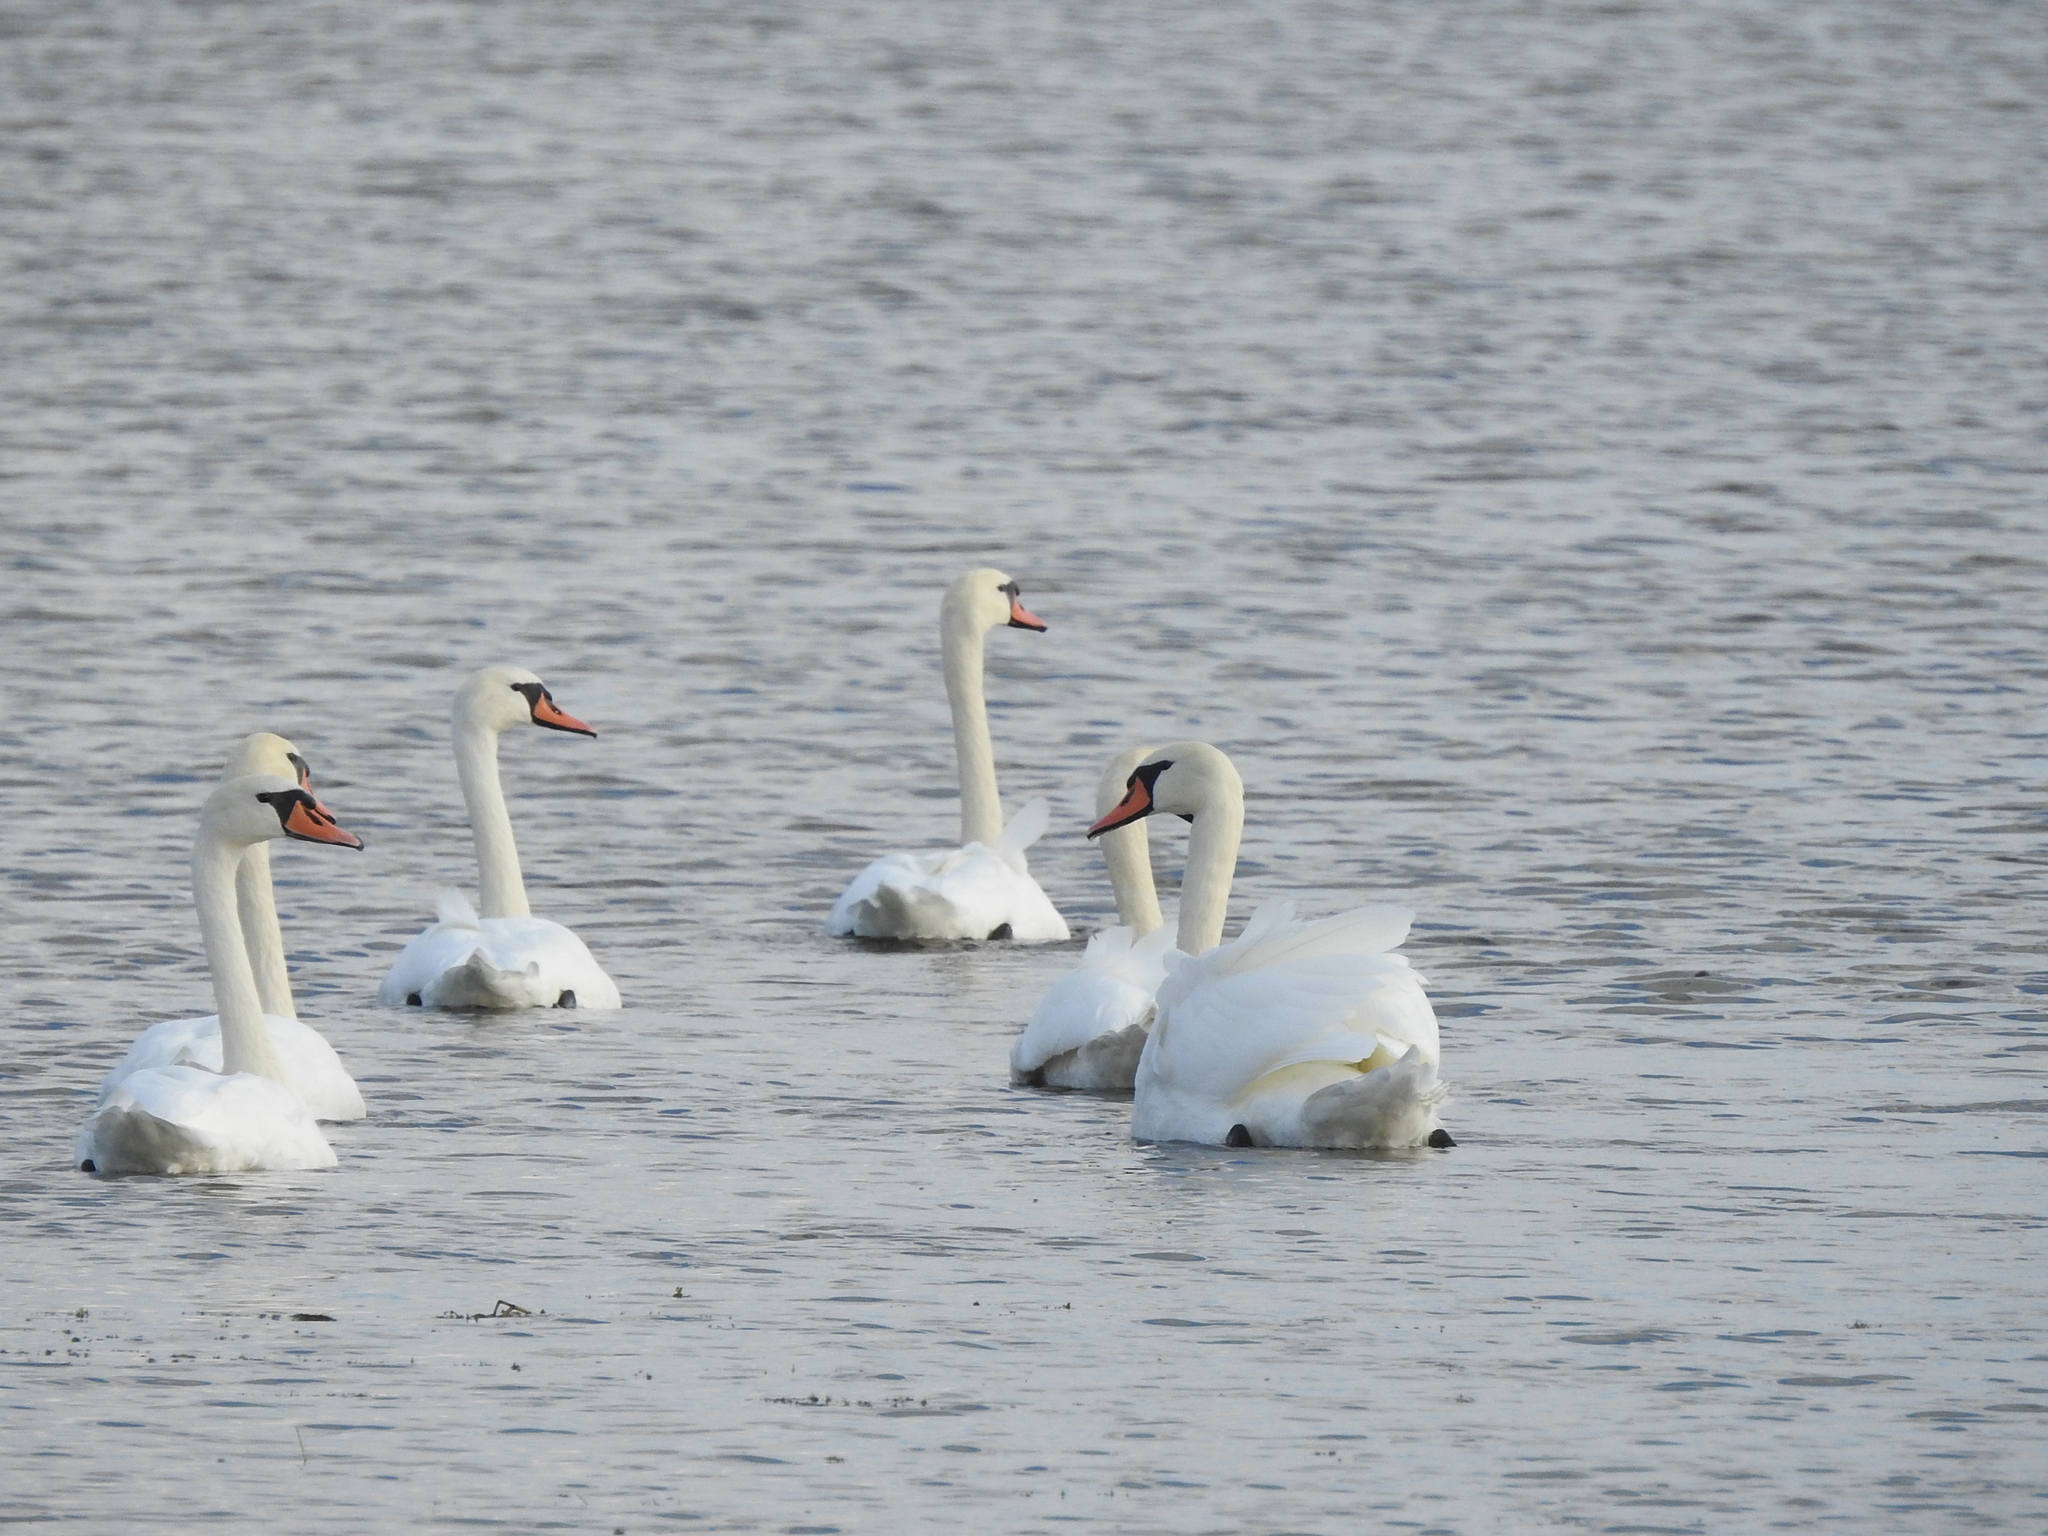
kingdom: Animalia
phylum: Chordata
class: Aves
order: Anseriformes
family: Anatidae
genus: Cygnus
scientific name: Cygnus olor
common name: Mute swan
